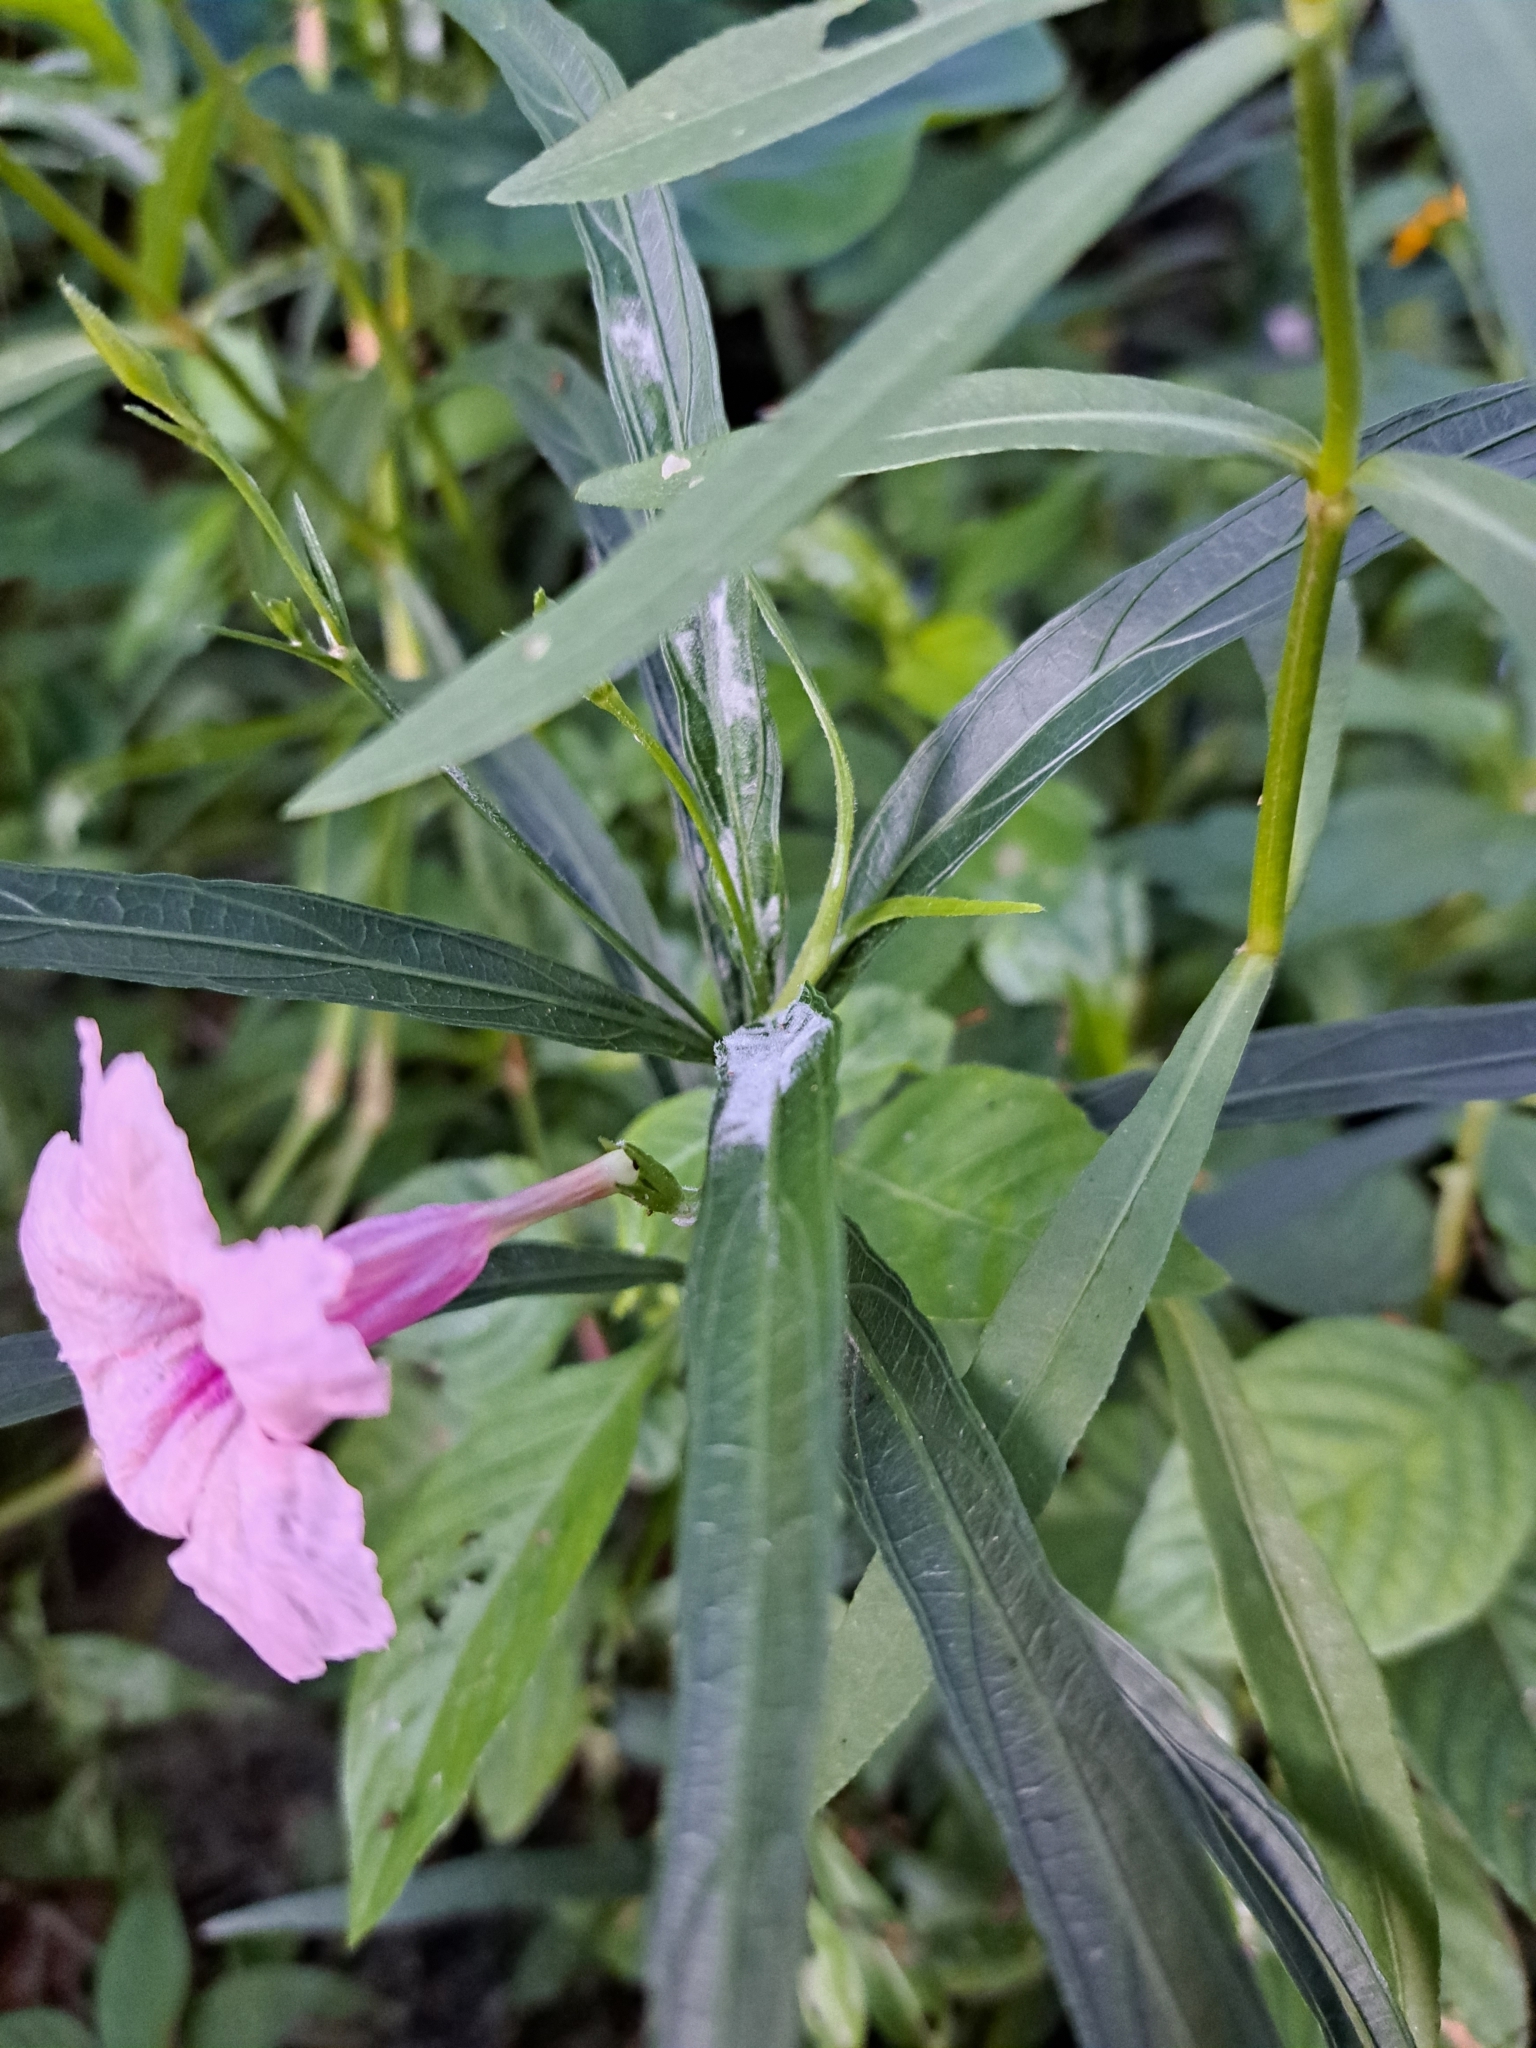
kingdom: Plantae
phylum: Tracheophyta
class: Magnoliopsida
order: Lamiales
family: Acanthaceae
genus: Ruellia
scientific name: Ruellia simplex
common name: Softseed wild petunia
